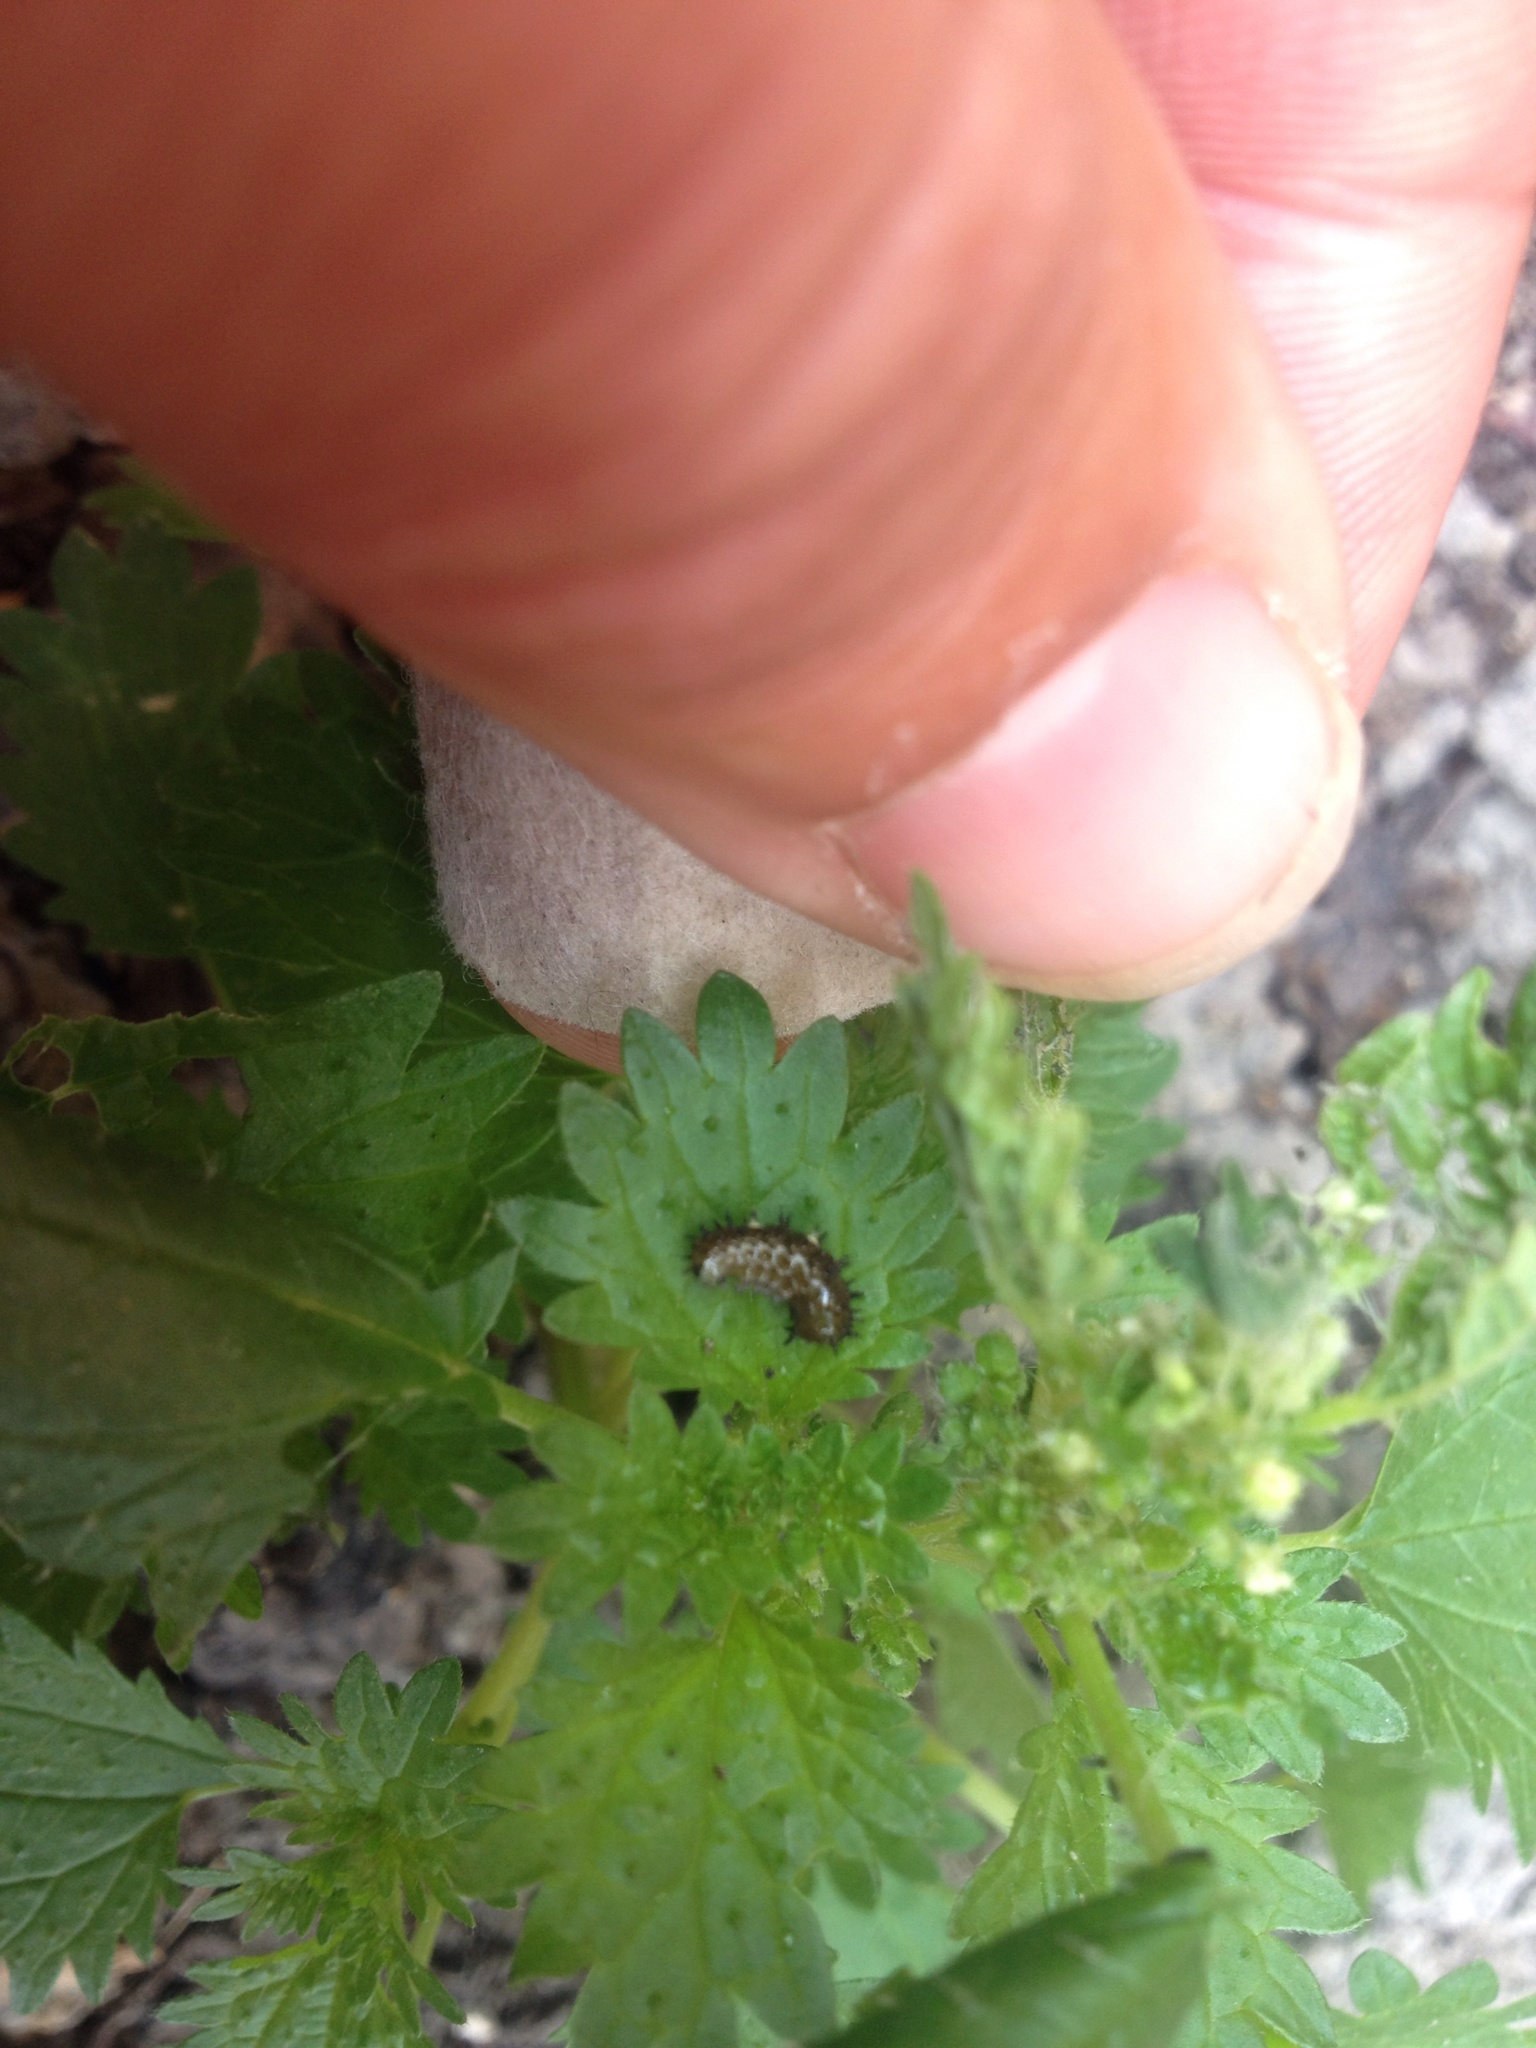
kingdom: Animalia
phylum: Arthropoda
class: Insecta
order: Lepidoptera
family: Nymphalidae
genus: Vanessa
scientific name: Vanessa itea
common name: Yellow admiral
